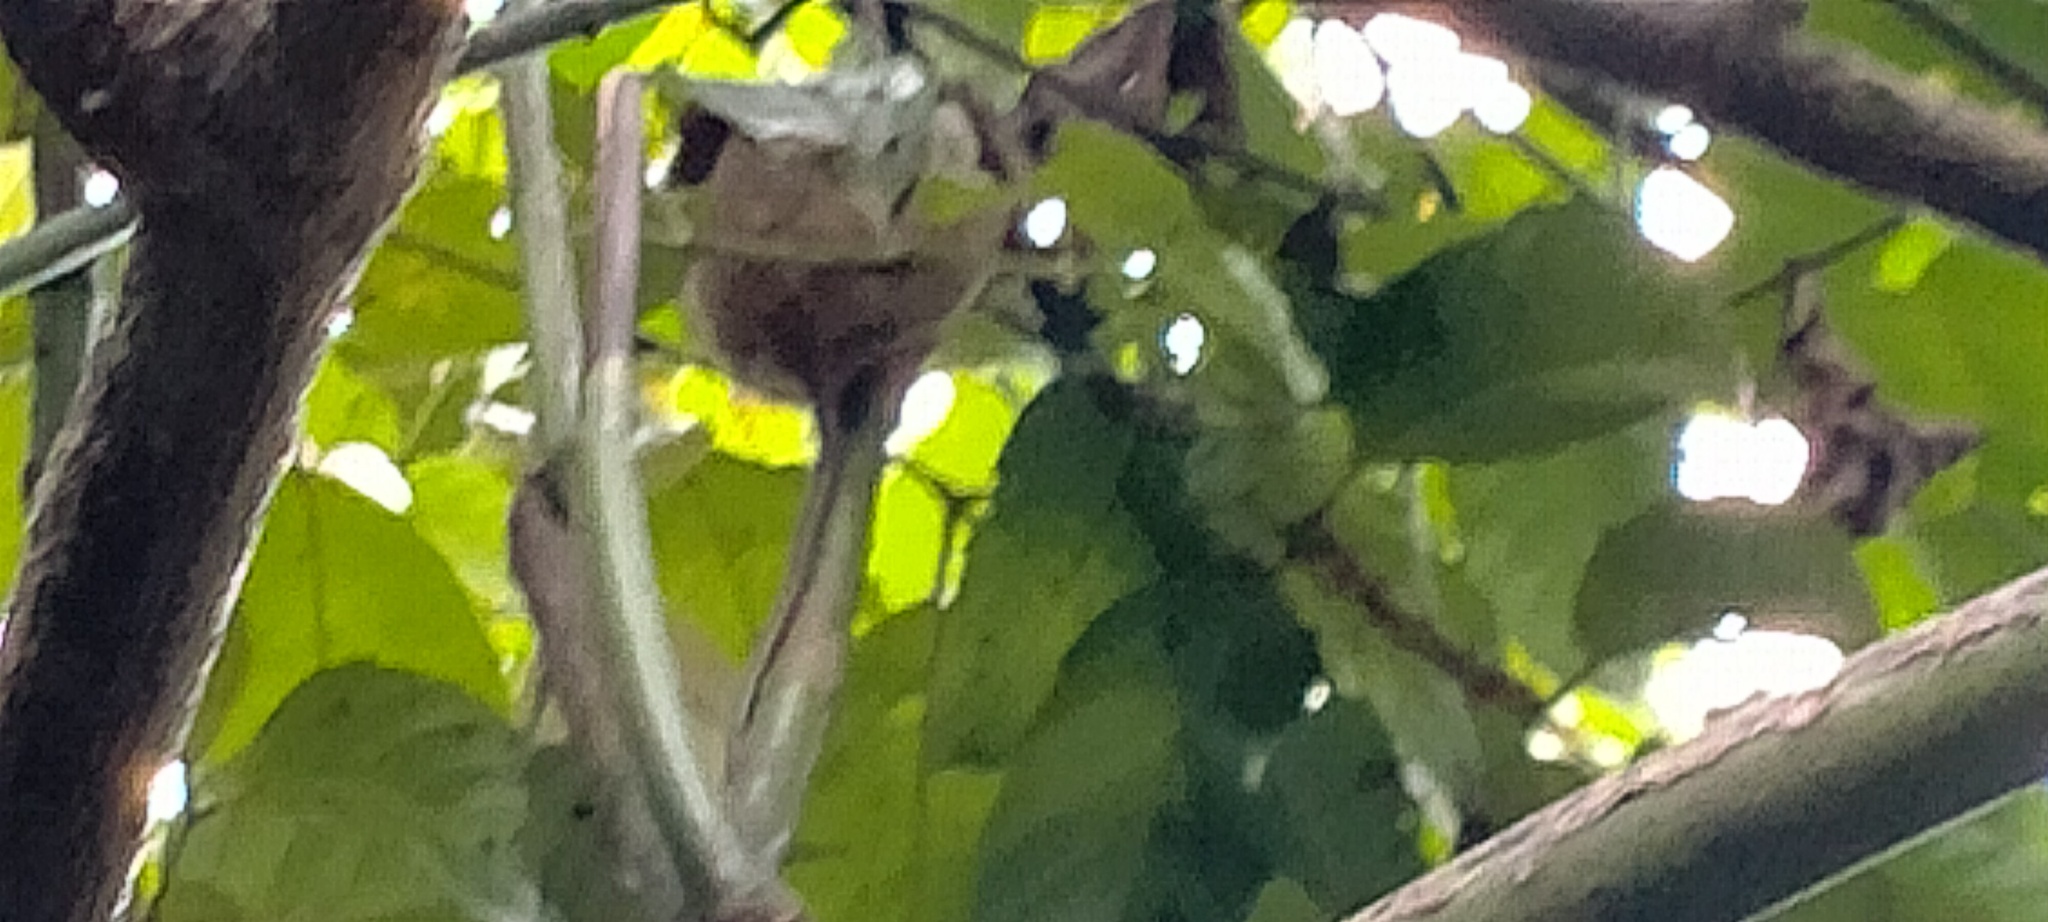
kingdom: Animalia
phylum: Chordata
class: Mammalia
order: Primates
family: Tarsiidae
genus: Carlito
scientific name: Carlito syrichta
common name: Philippine tarsier
